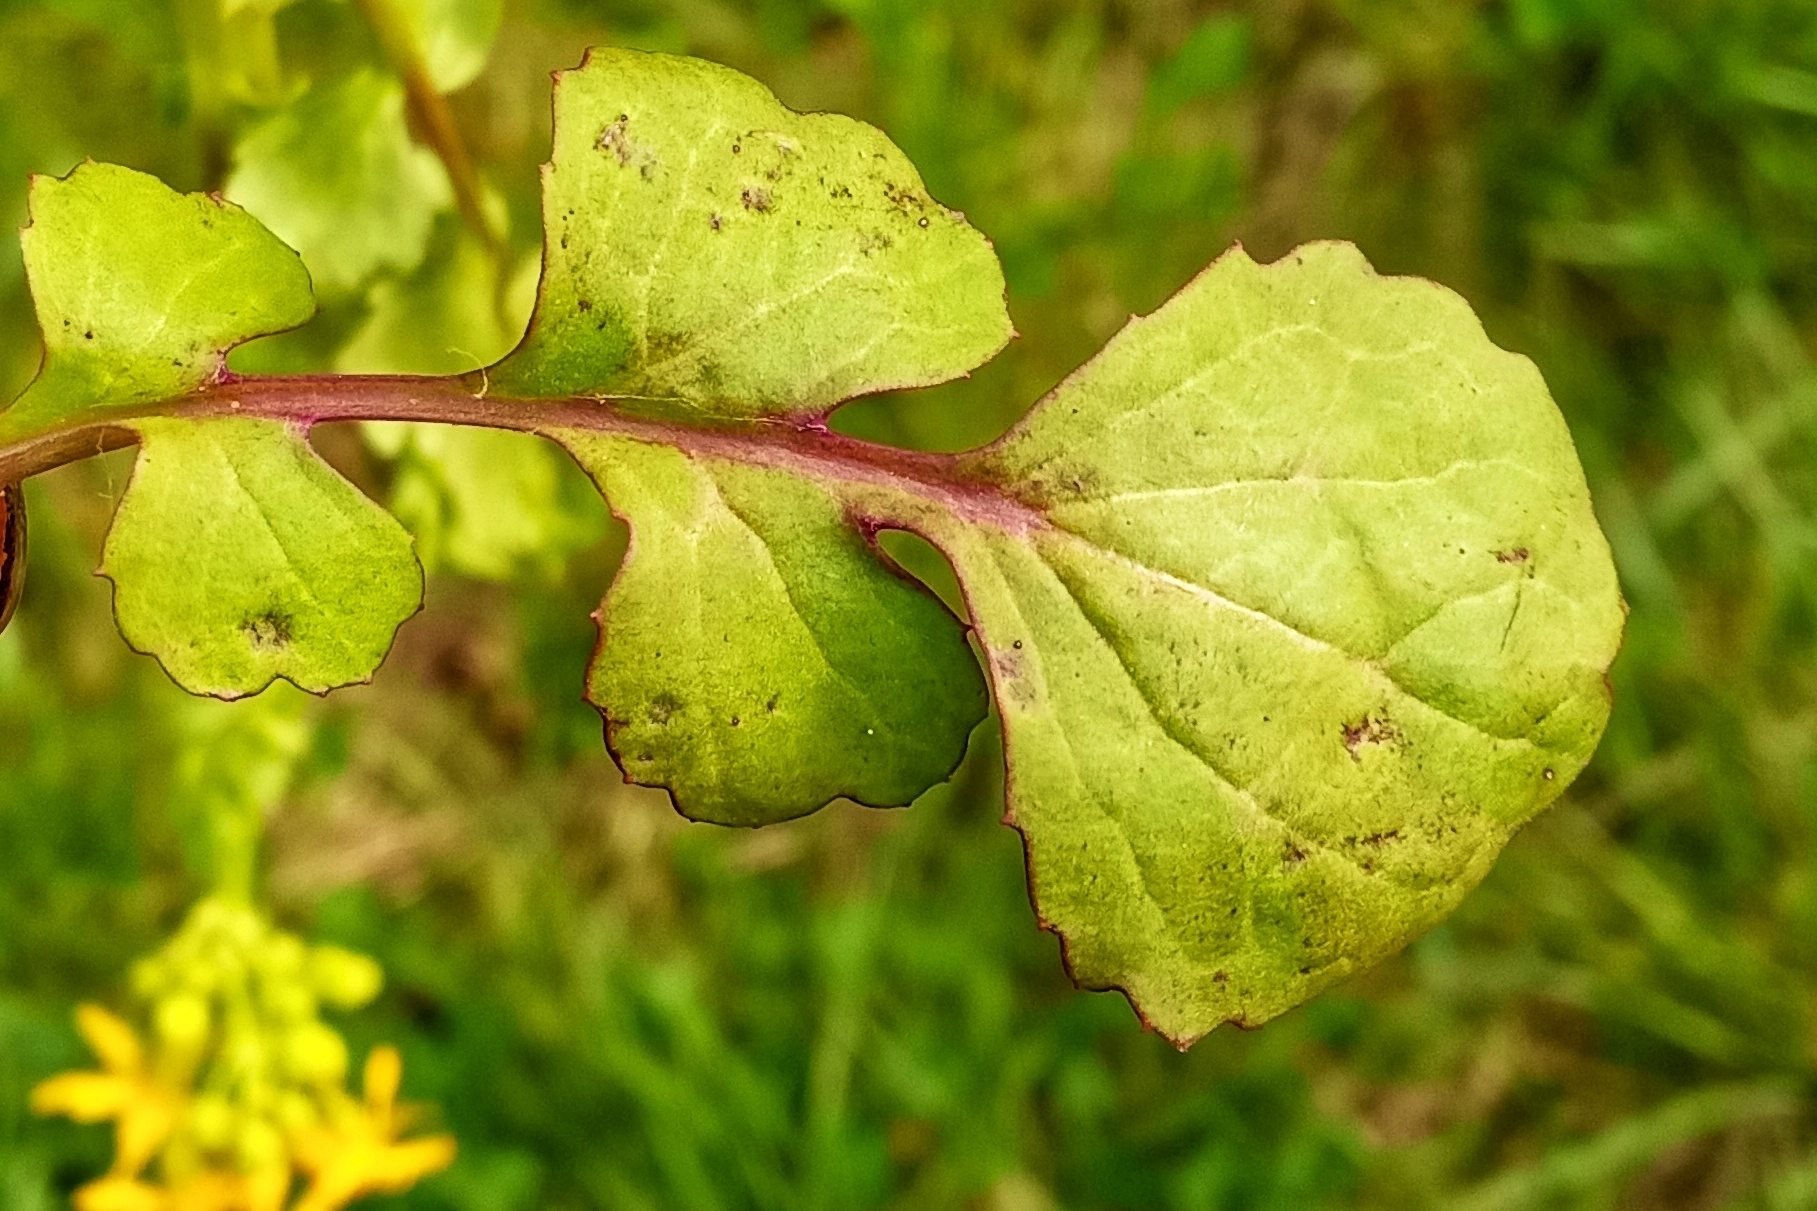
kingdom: Plantae
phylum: Tracheophyta
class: Magnoliopsida
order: Asterales
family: Asteraceae
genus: Packera
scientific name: Packera glabella
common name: Butterweed
